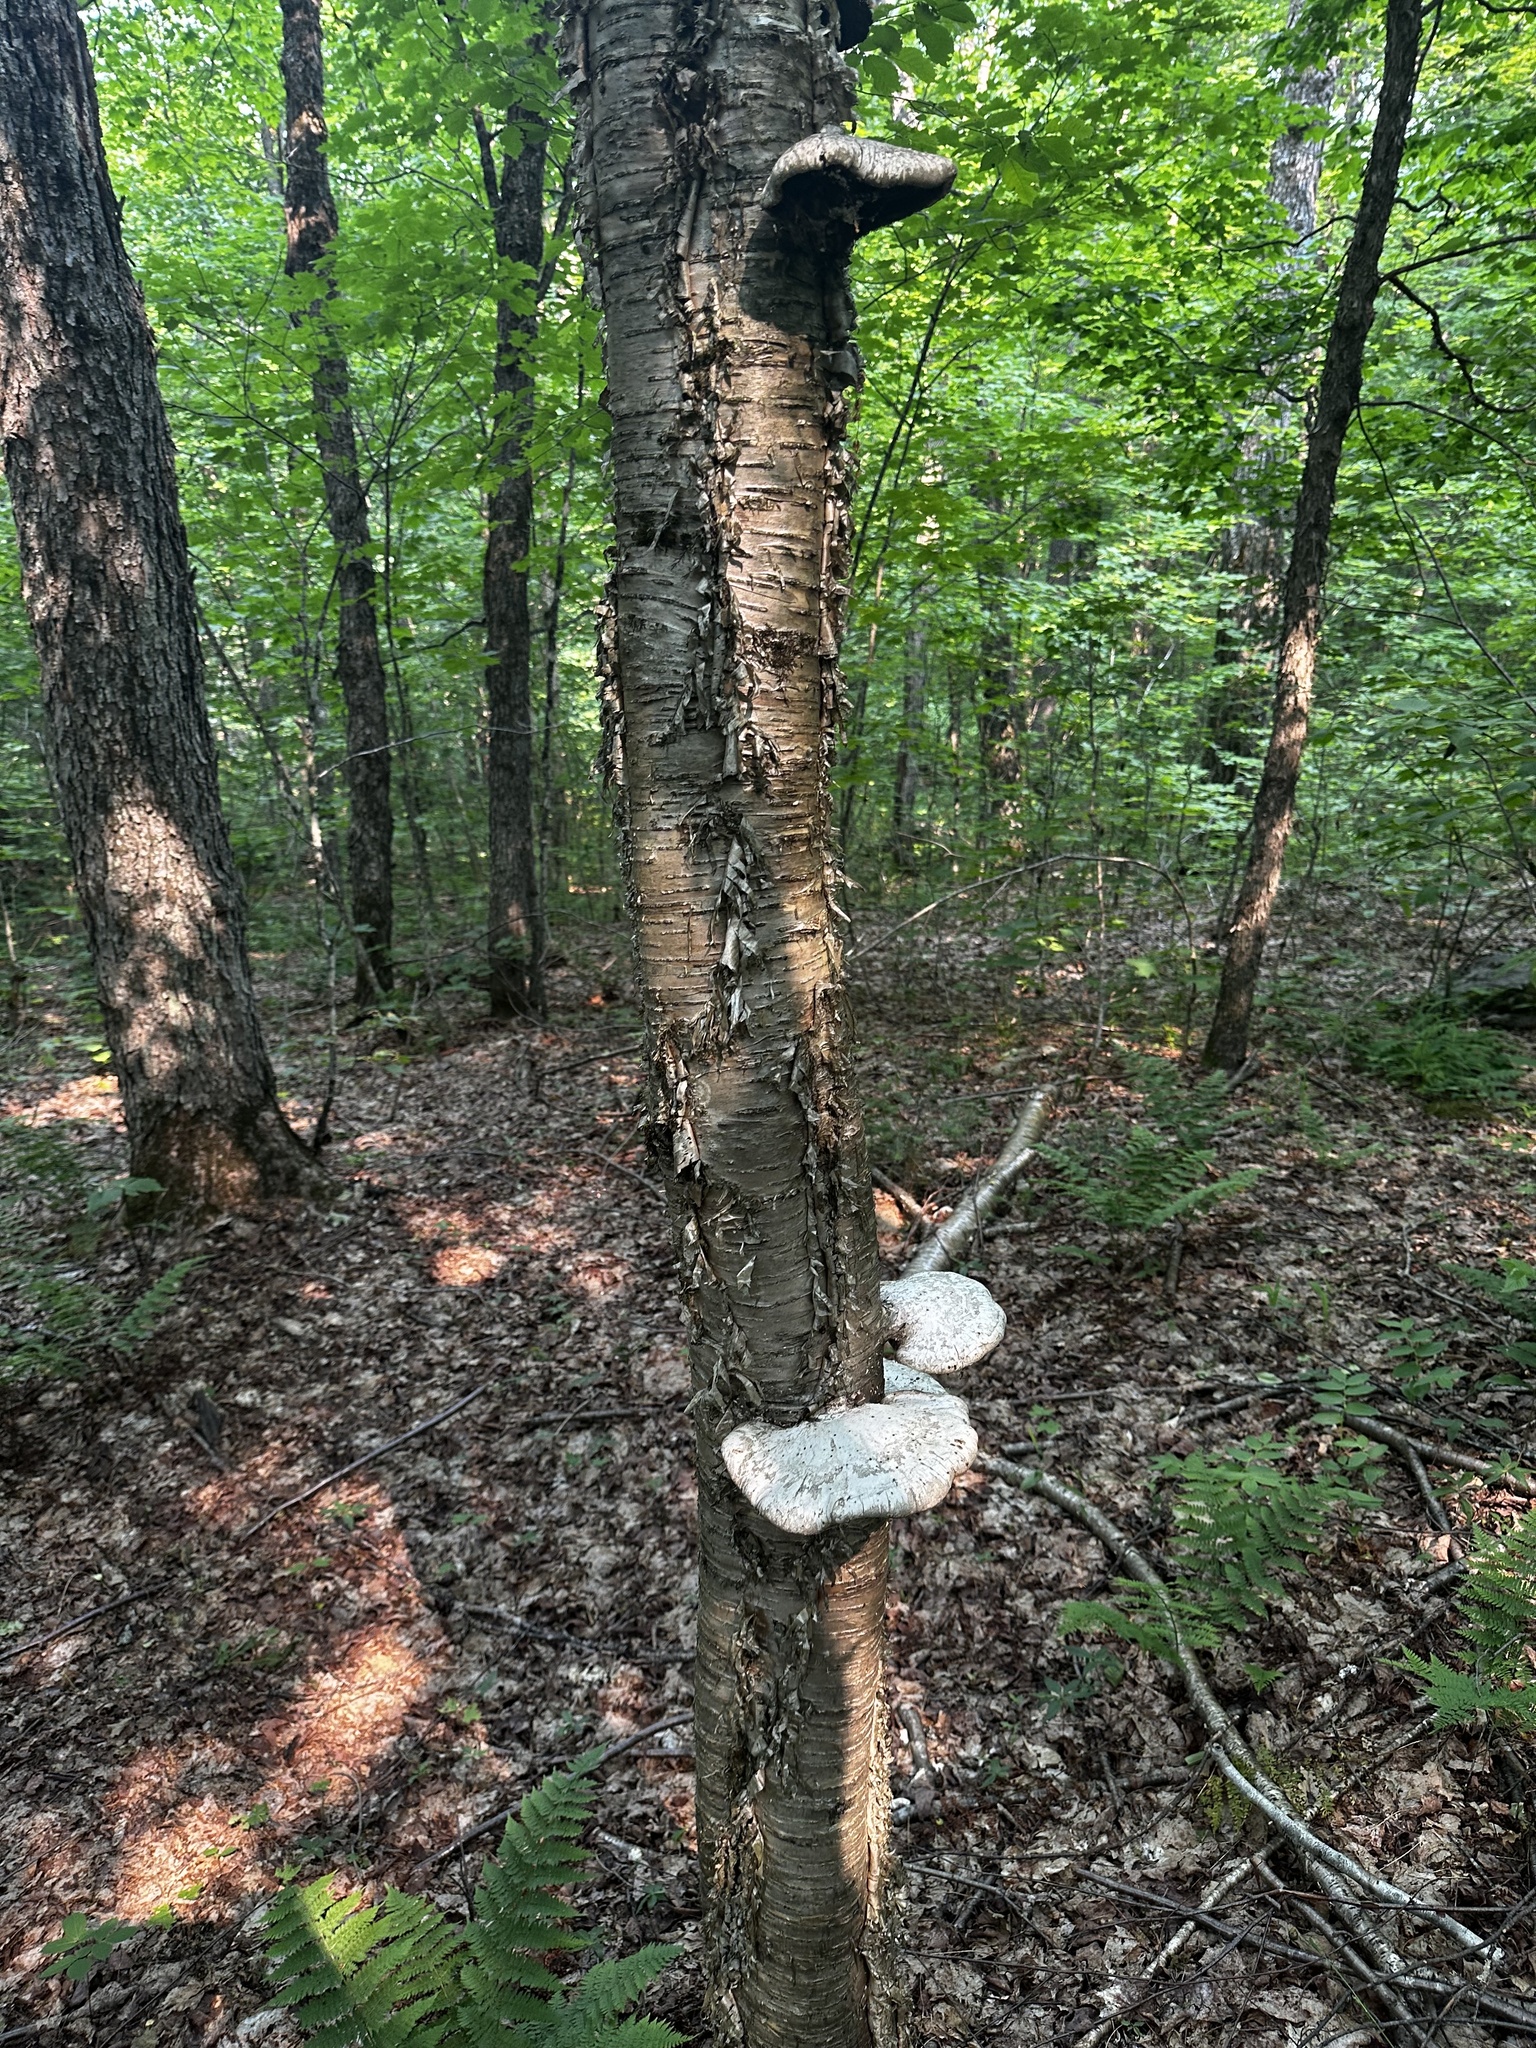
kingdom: Fungi
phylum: Basidiomycota
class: Agaricomycetes
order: Polyporales
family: Fomitopsidaceae
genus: Fomitopsis
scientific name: Fomitopsis betulina
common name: Birch polypore
